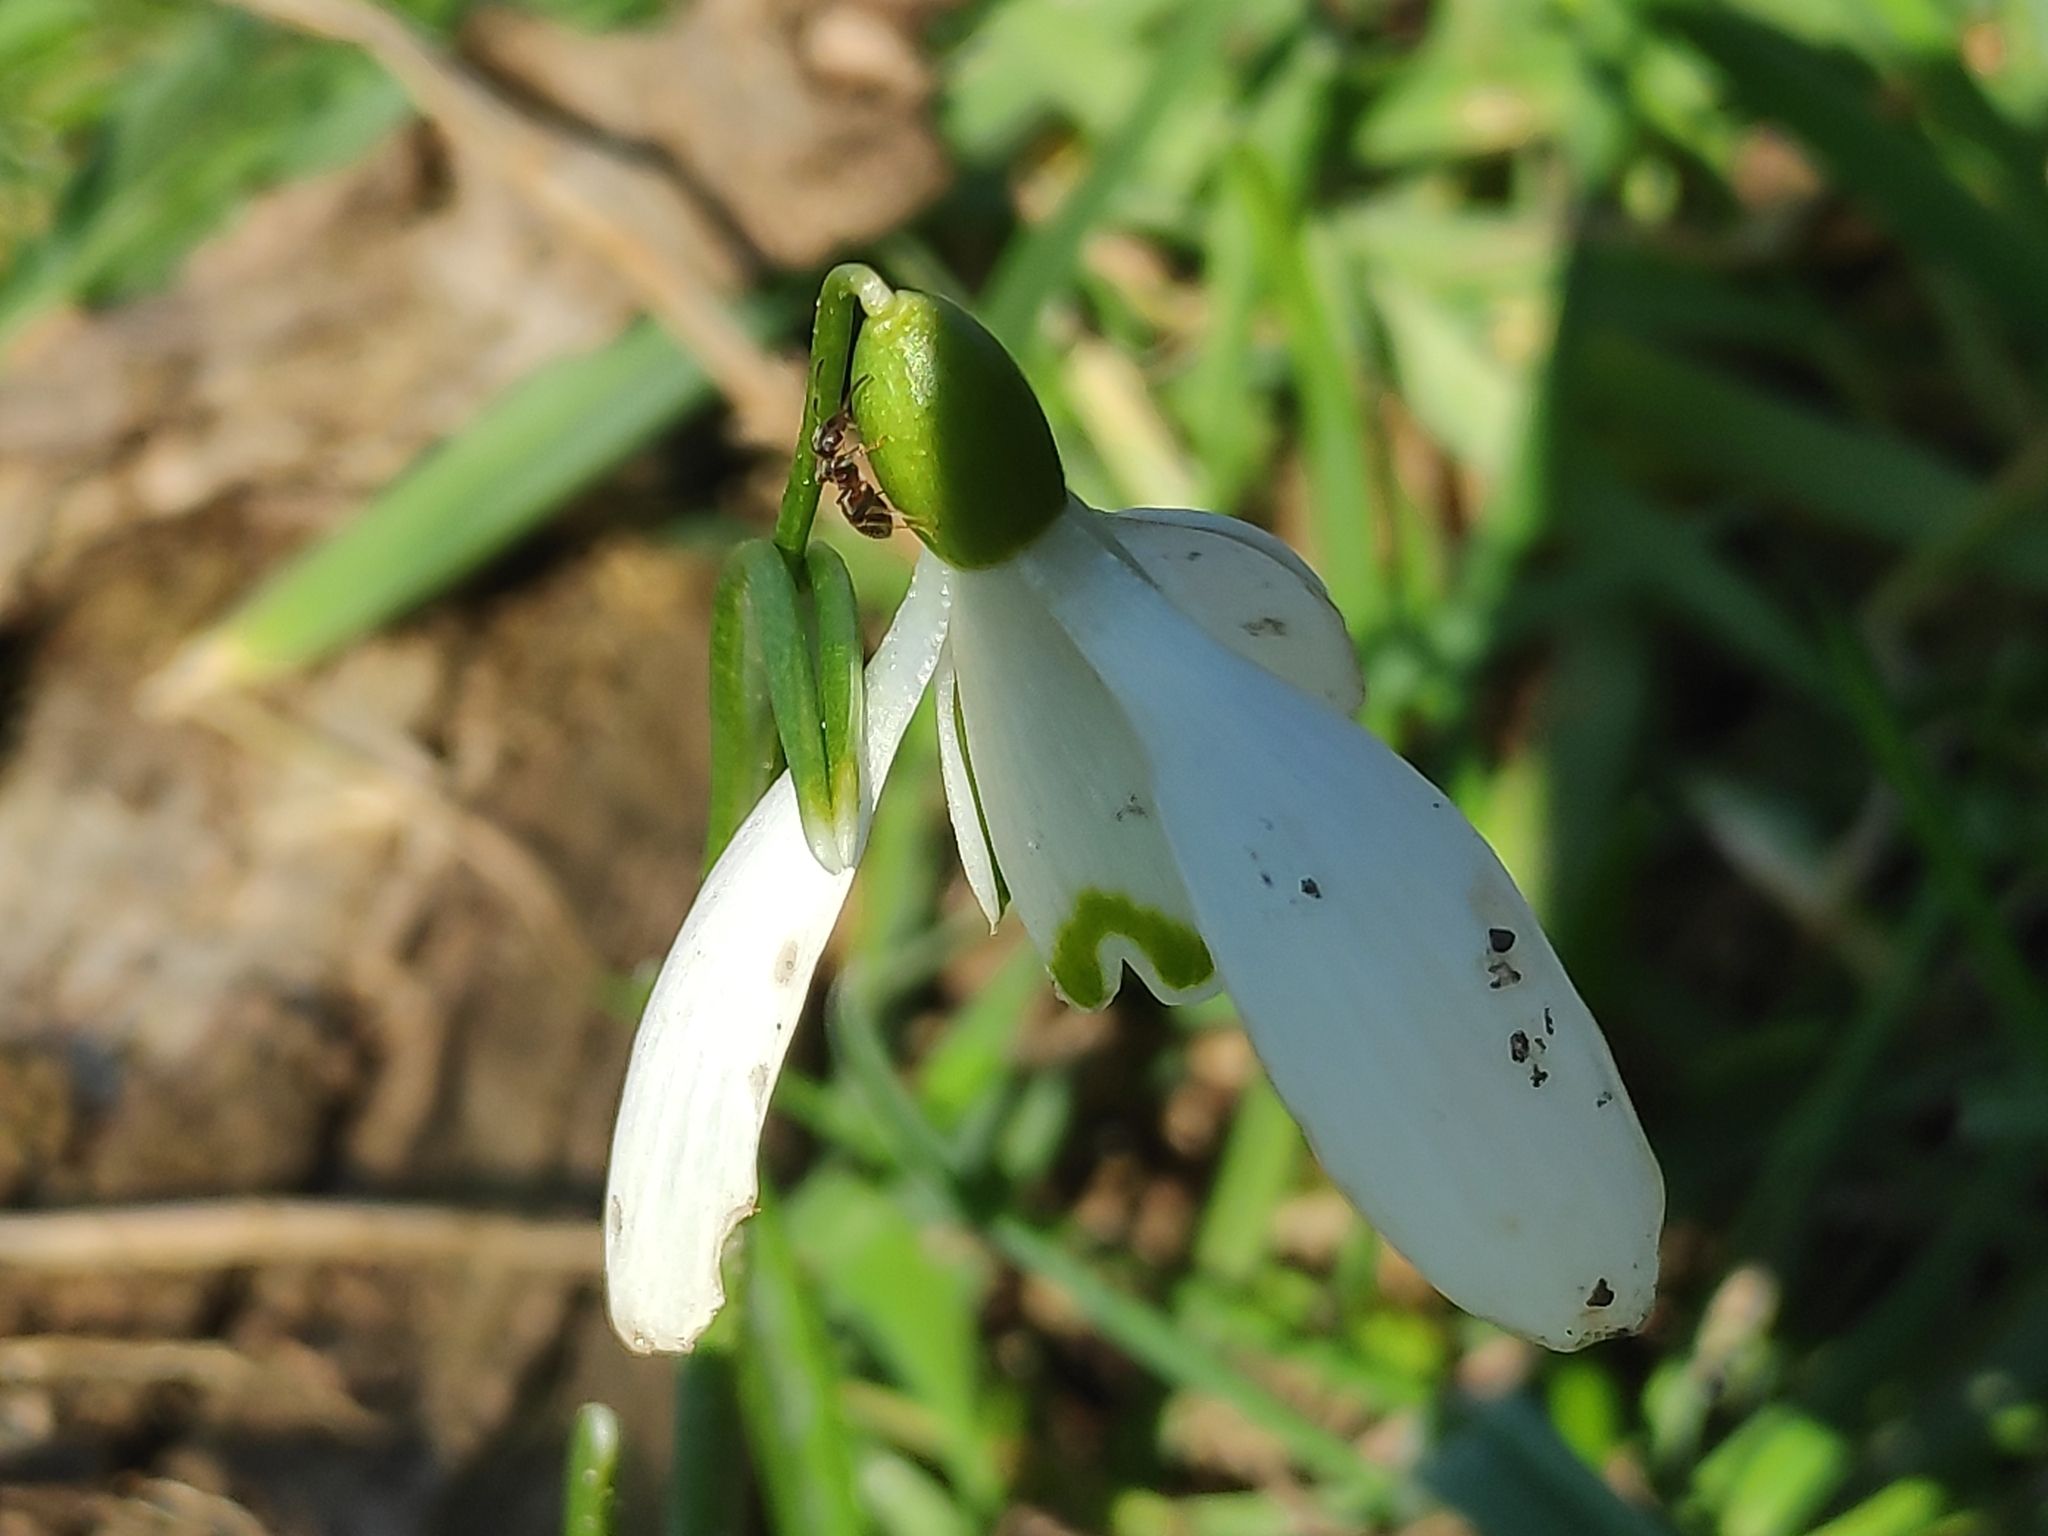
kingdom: Plantae
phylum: Tracheophyta
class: Liliopsida
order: Asparagales
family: Amaryllidaceae
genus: Galanthus
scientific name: Galanthus nivalis
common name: Snowdrop
